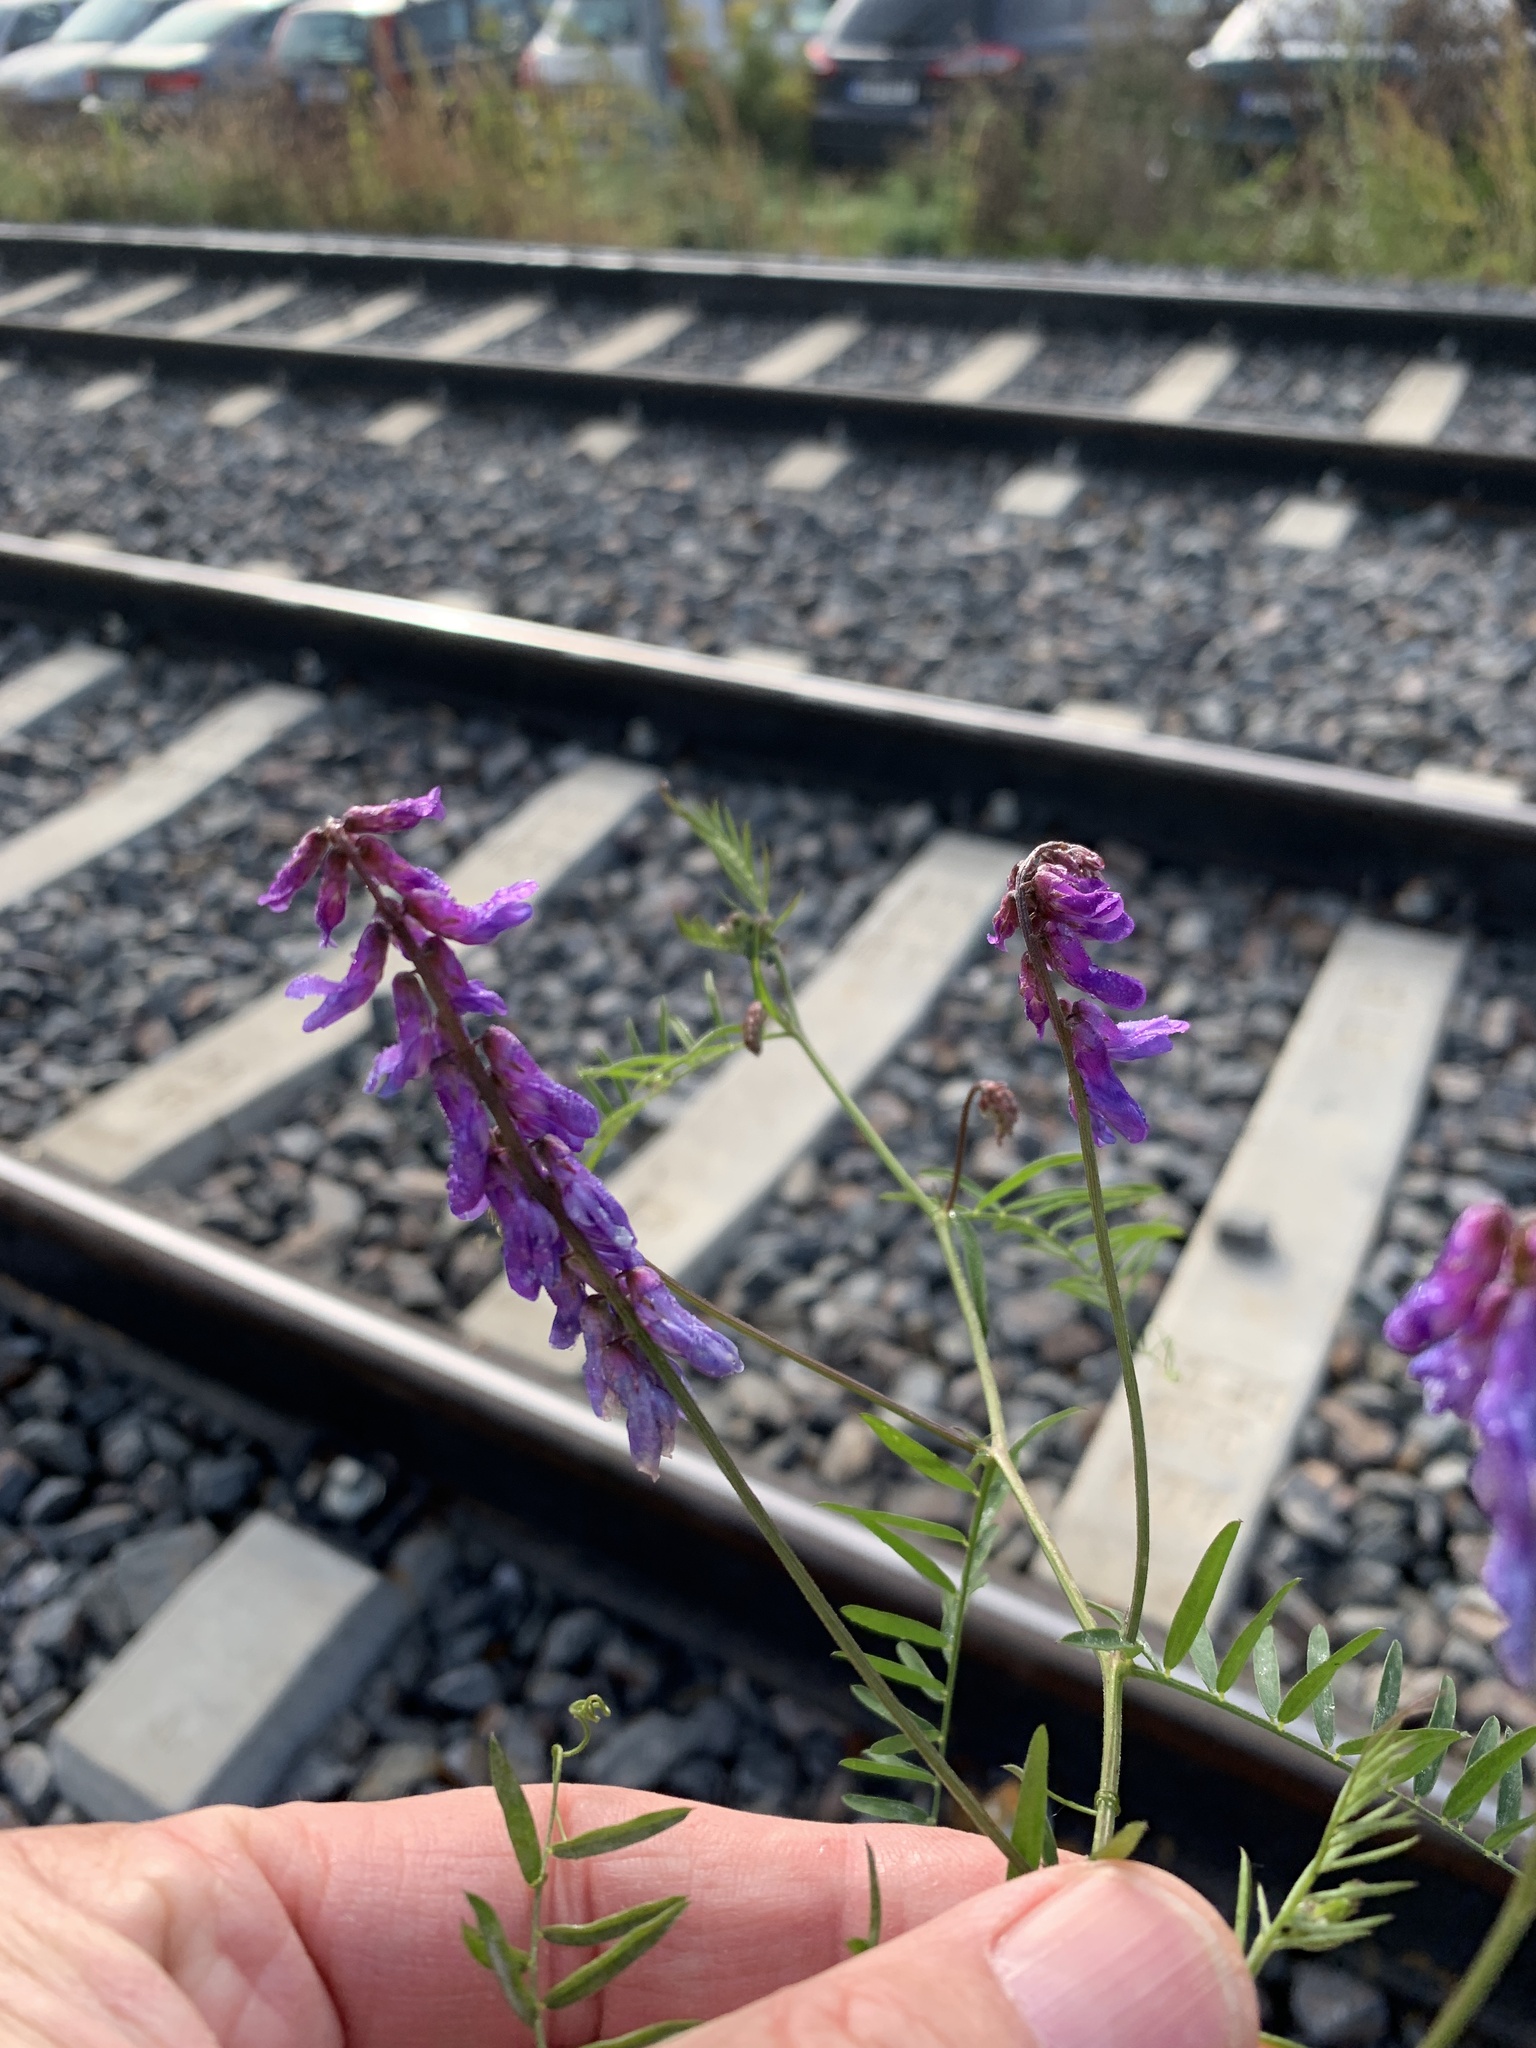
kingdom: Plantae
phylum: Tracheophyta
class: Magnoliopsida
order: Fabales
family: Fabaceae
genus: Vicia
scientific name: Vicia cracca
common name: Bird vetch
